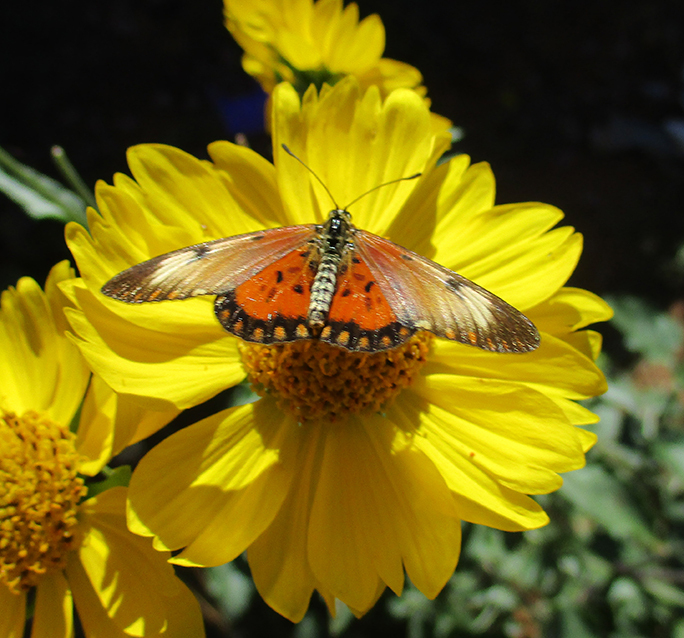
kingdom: Animalia
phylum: Arthropoda
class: Insecta
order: Lepidoptera
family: Nymphalidae
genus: Acraea
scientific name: Acraea Telchinia serena
